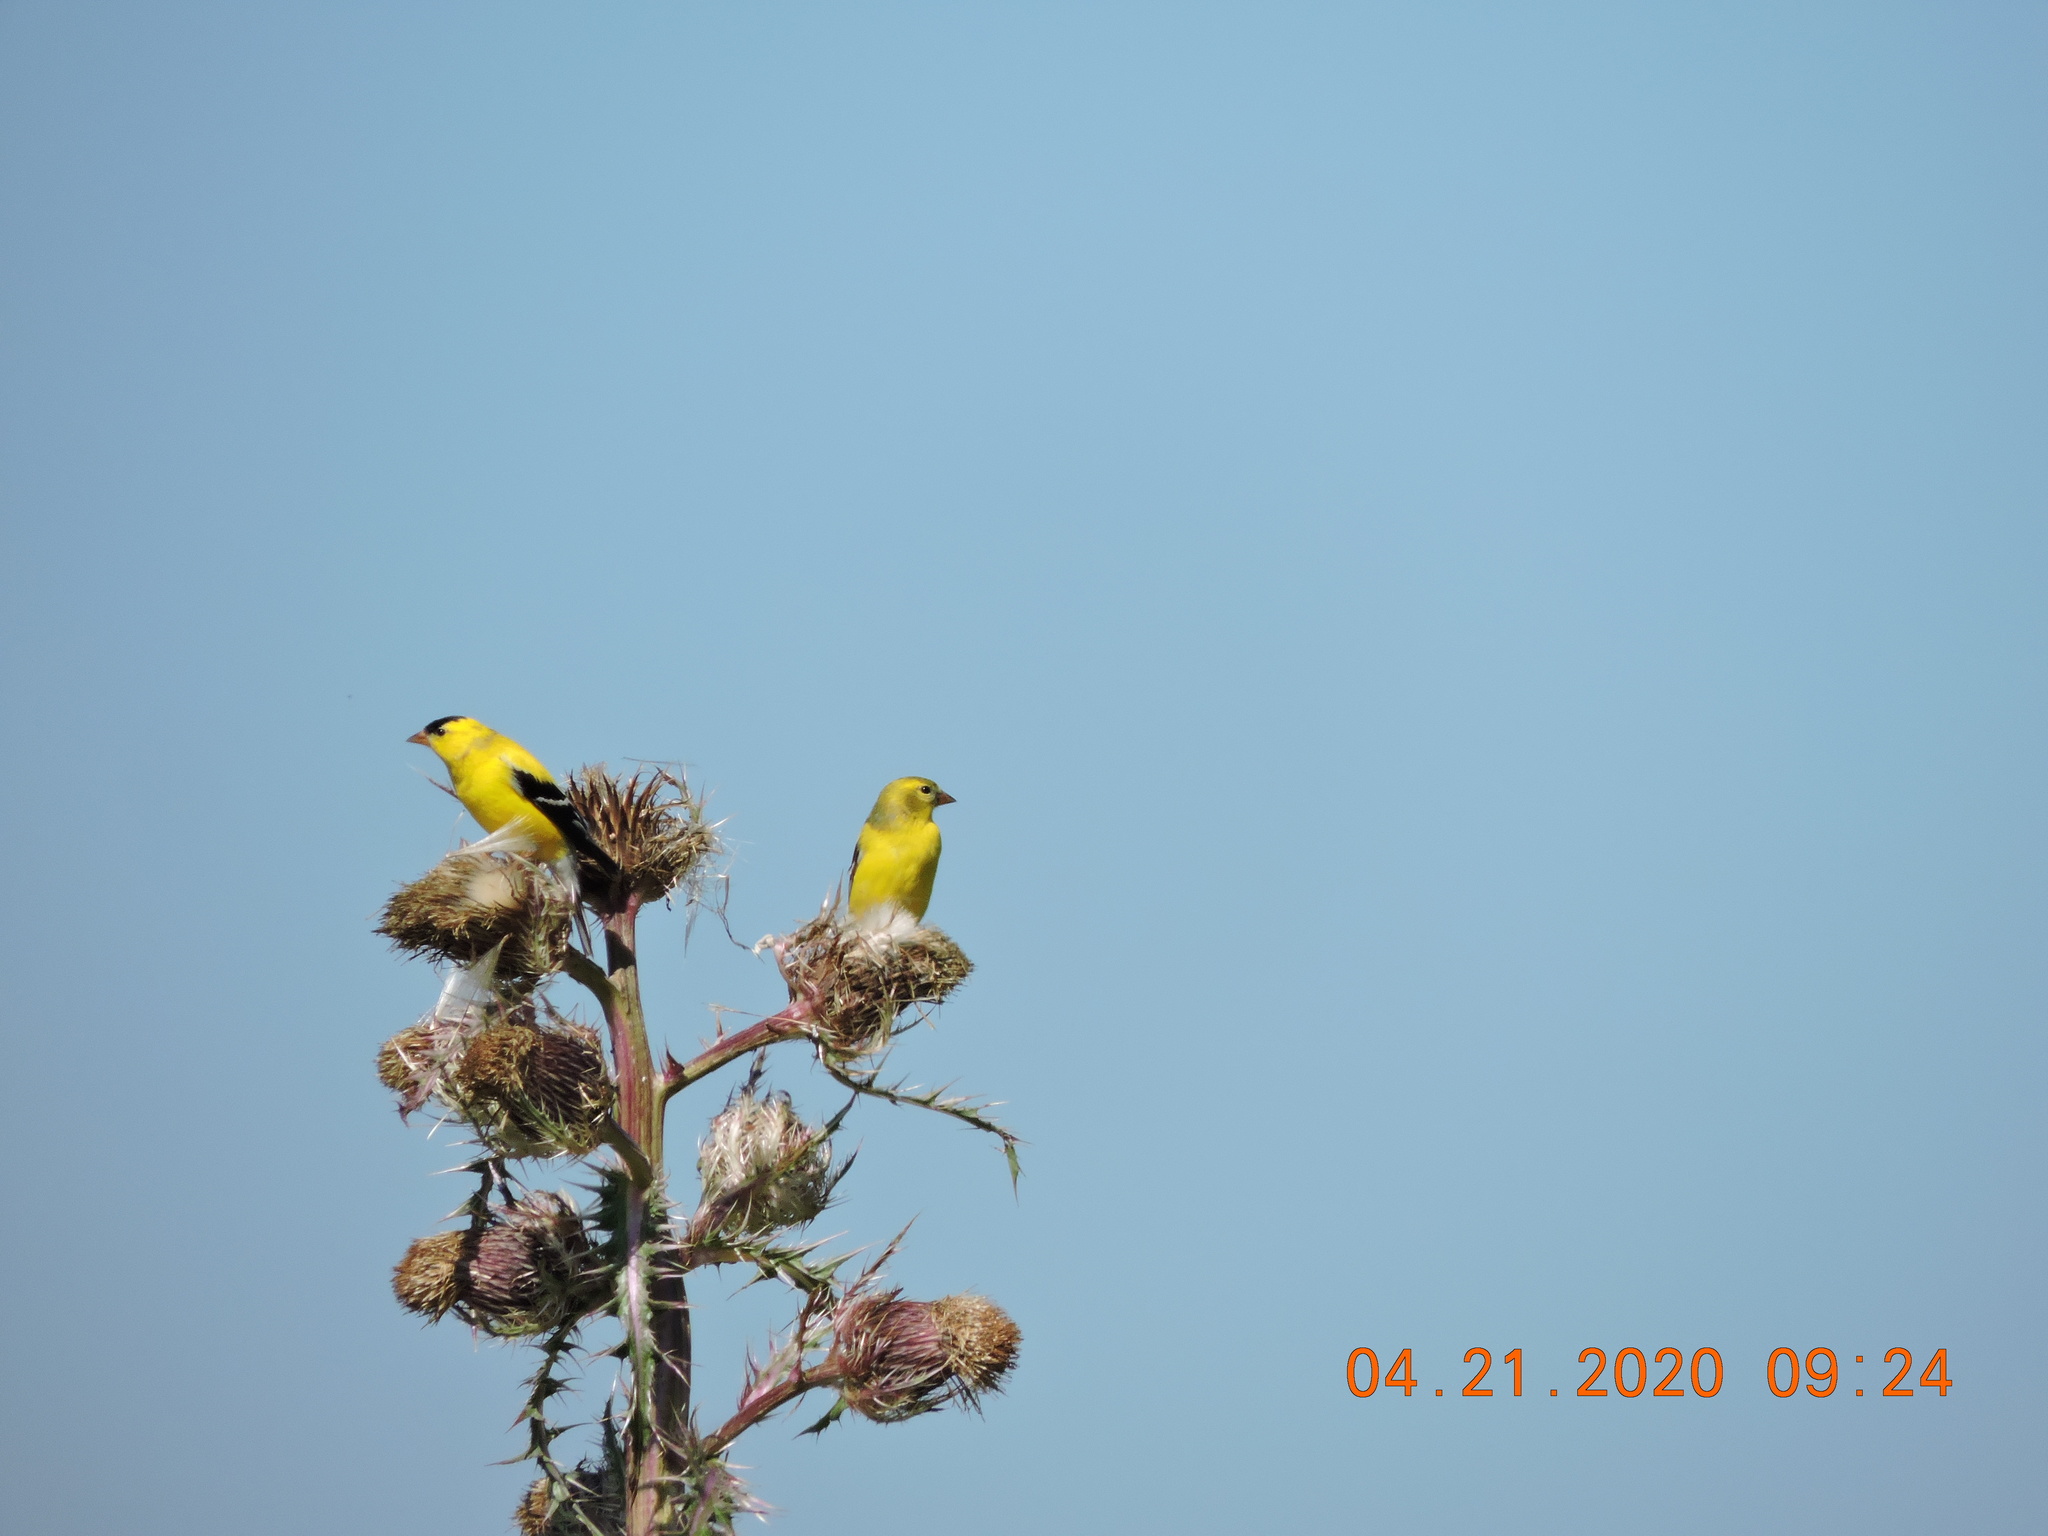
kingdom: Animalia
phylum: Chordata
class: Aves
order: Passeriformes
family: Fringillidae
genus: Spinus
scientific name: Spinus tristis
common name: American goldfinch
